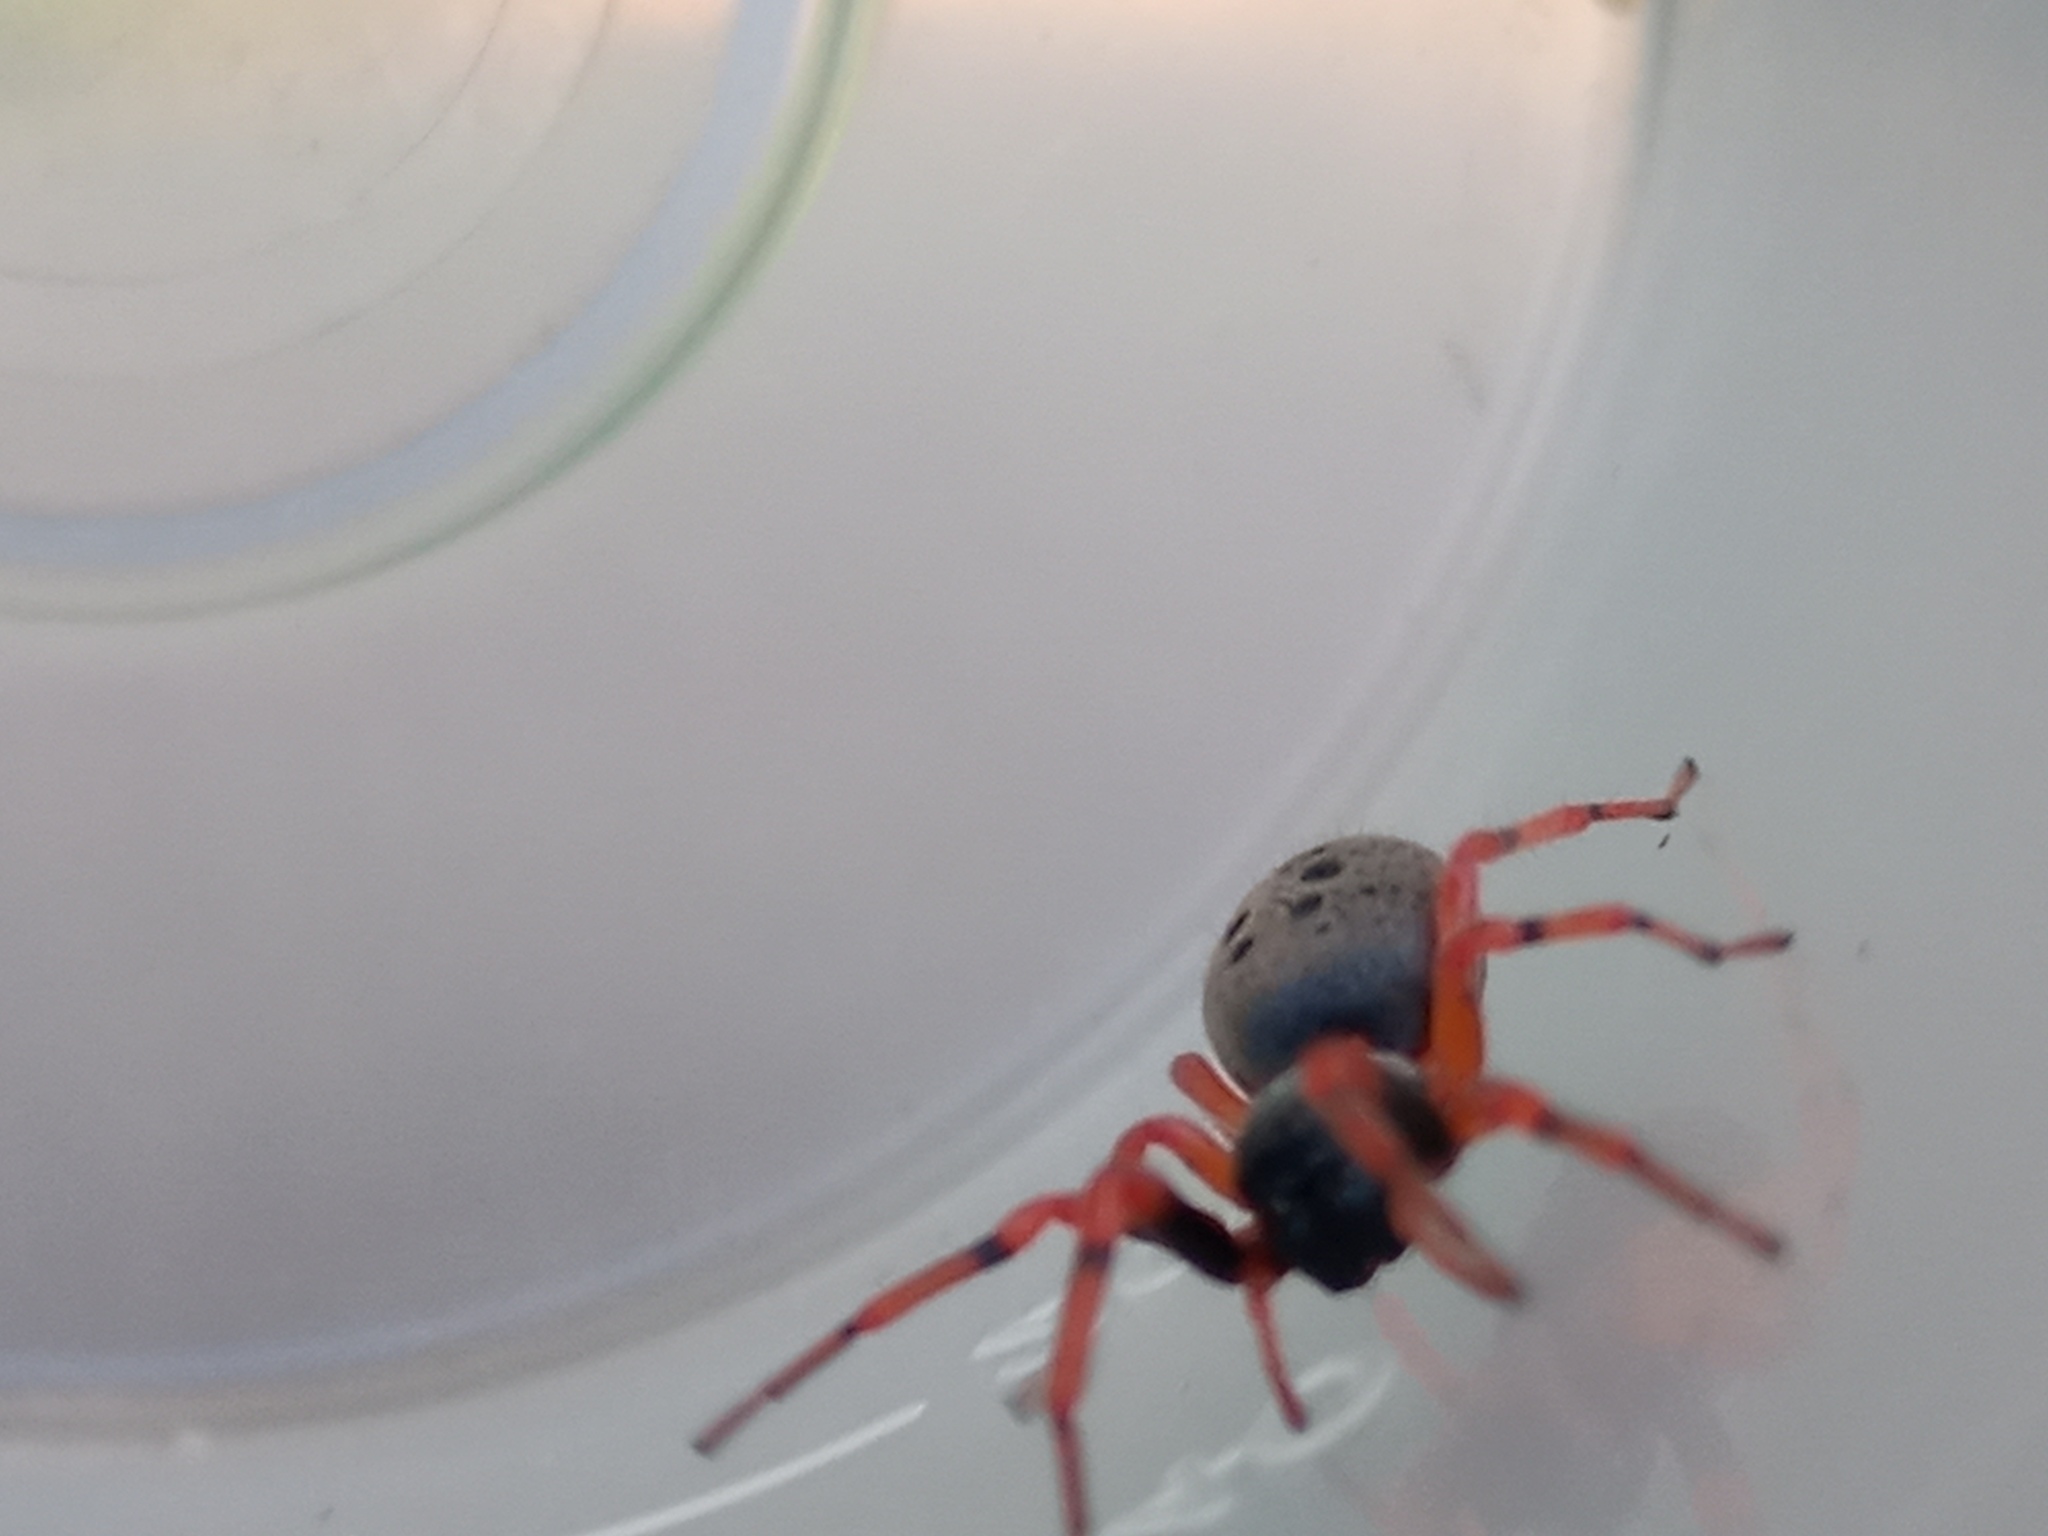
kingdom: Animalia
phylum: Arthropoda
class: Arachnida
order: Araneae
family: Trachelidae
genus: Trachelopachys
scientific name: Trachelopachys
